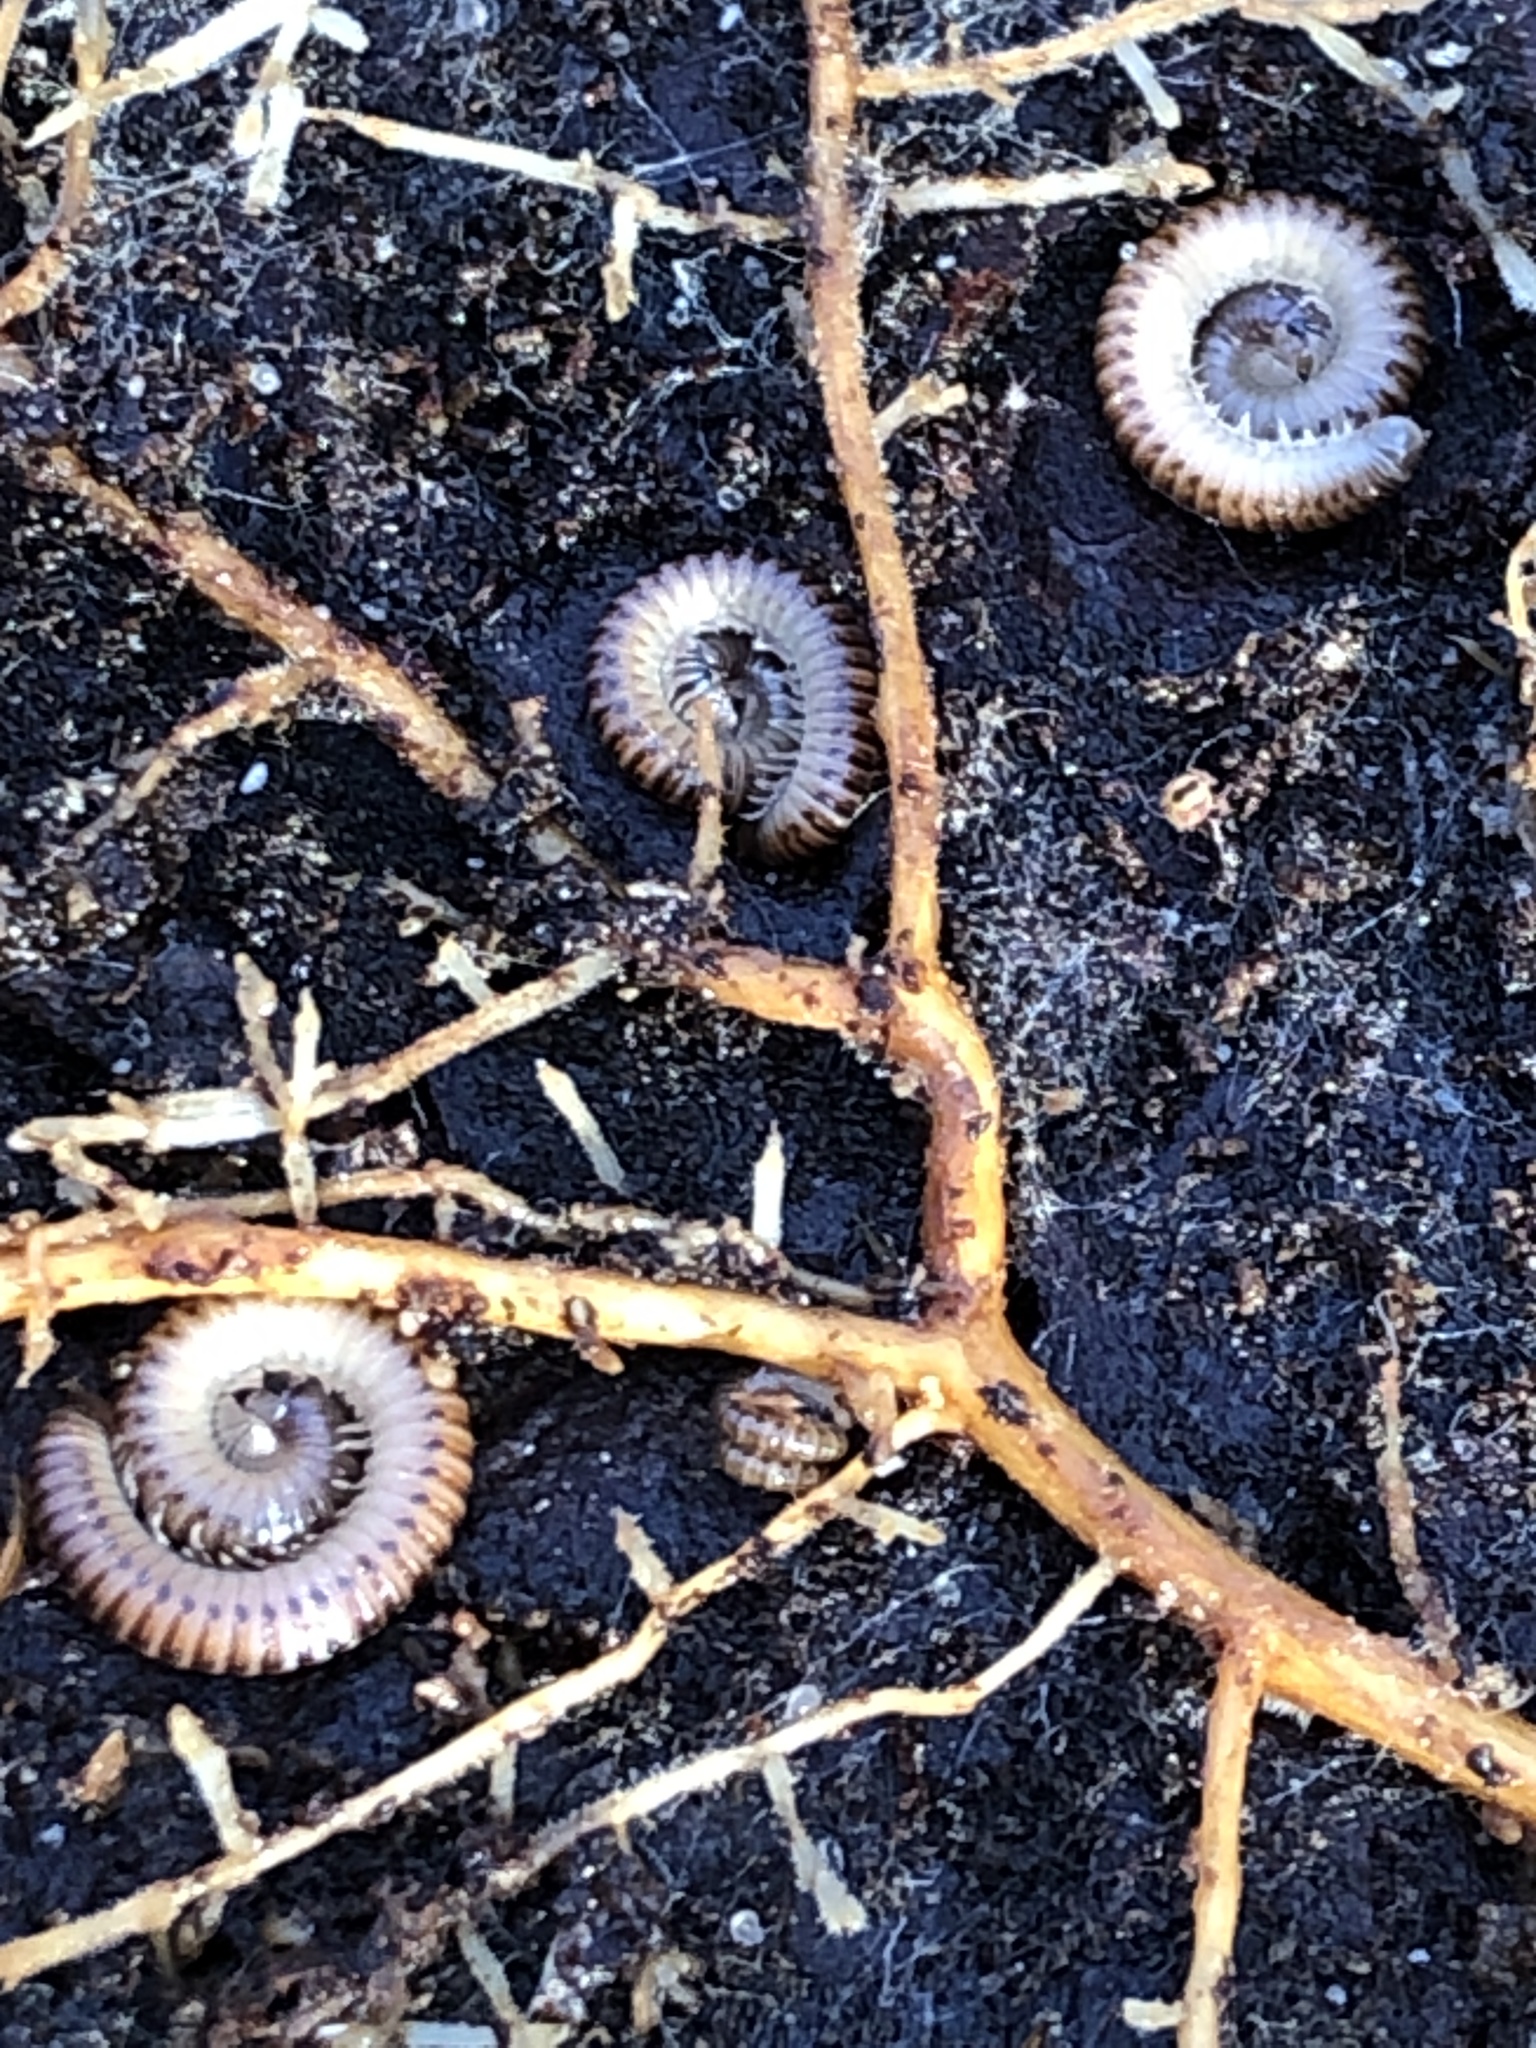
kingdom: Animalia
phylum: Arthropoda
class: Diplopoda
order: Julida
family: Julidae
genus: Cylindroiulus
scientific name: Cylindroiulus punctatus
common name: Blunt-tailed millipede
